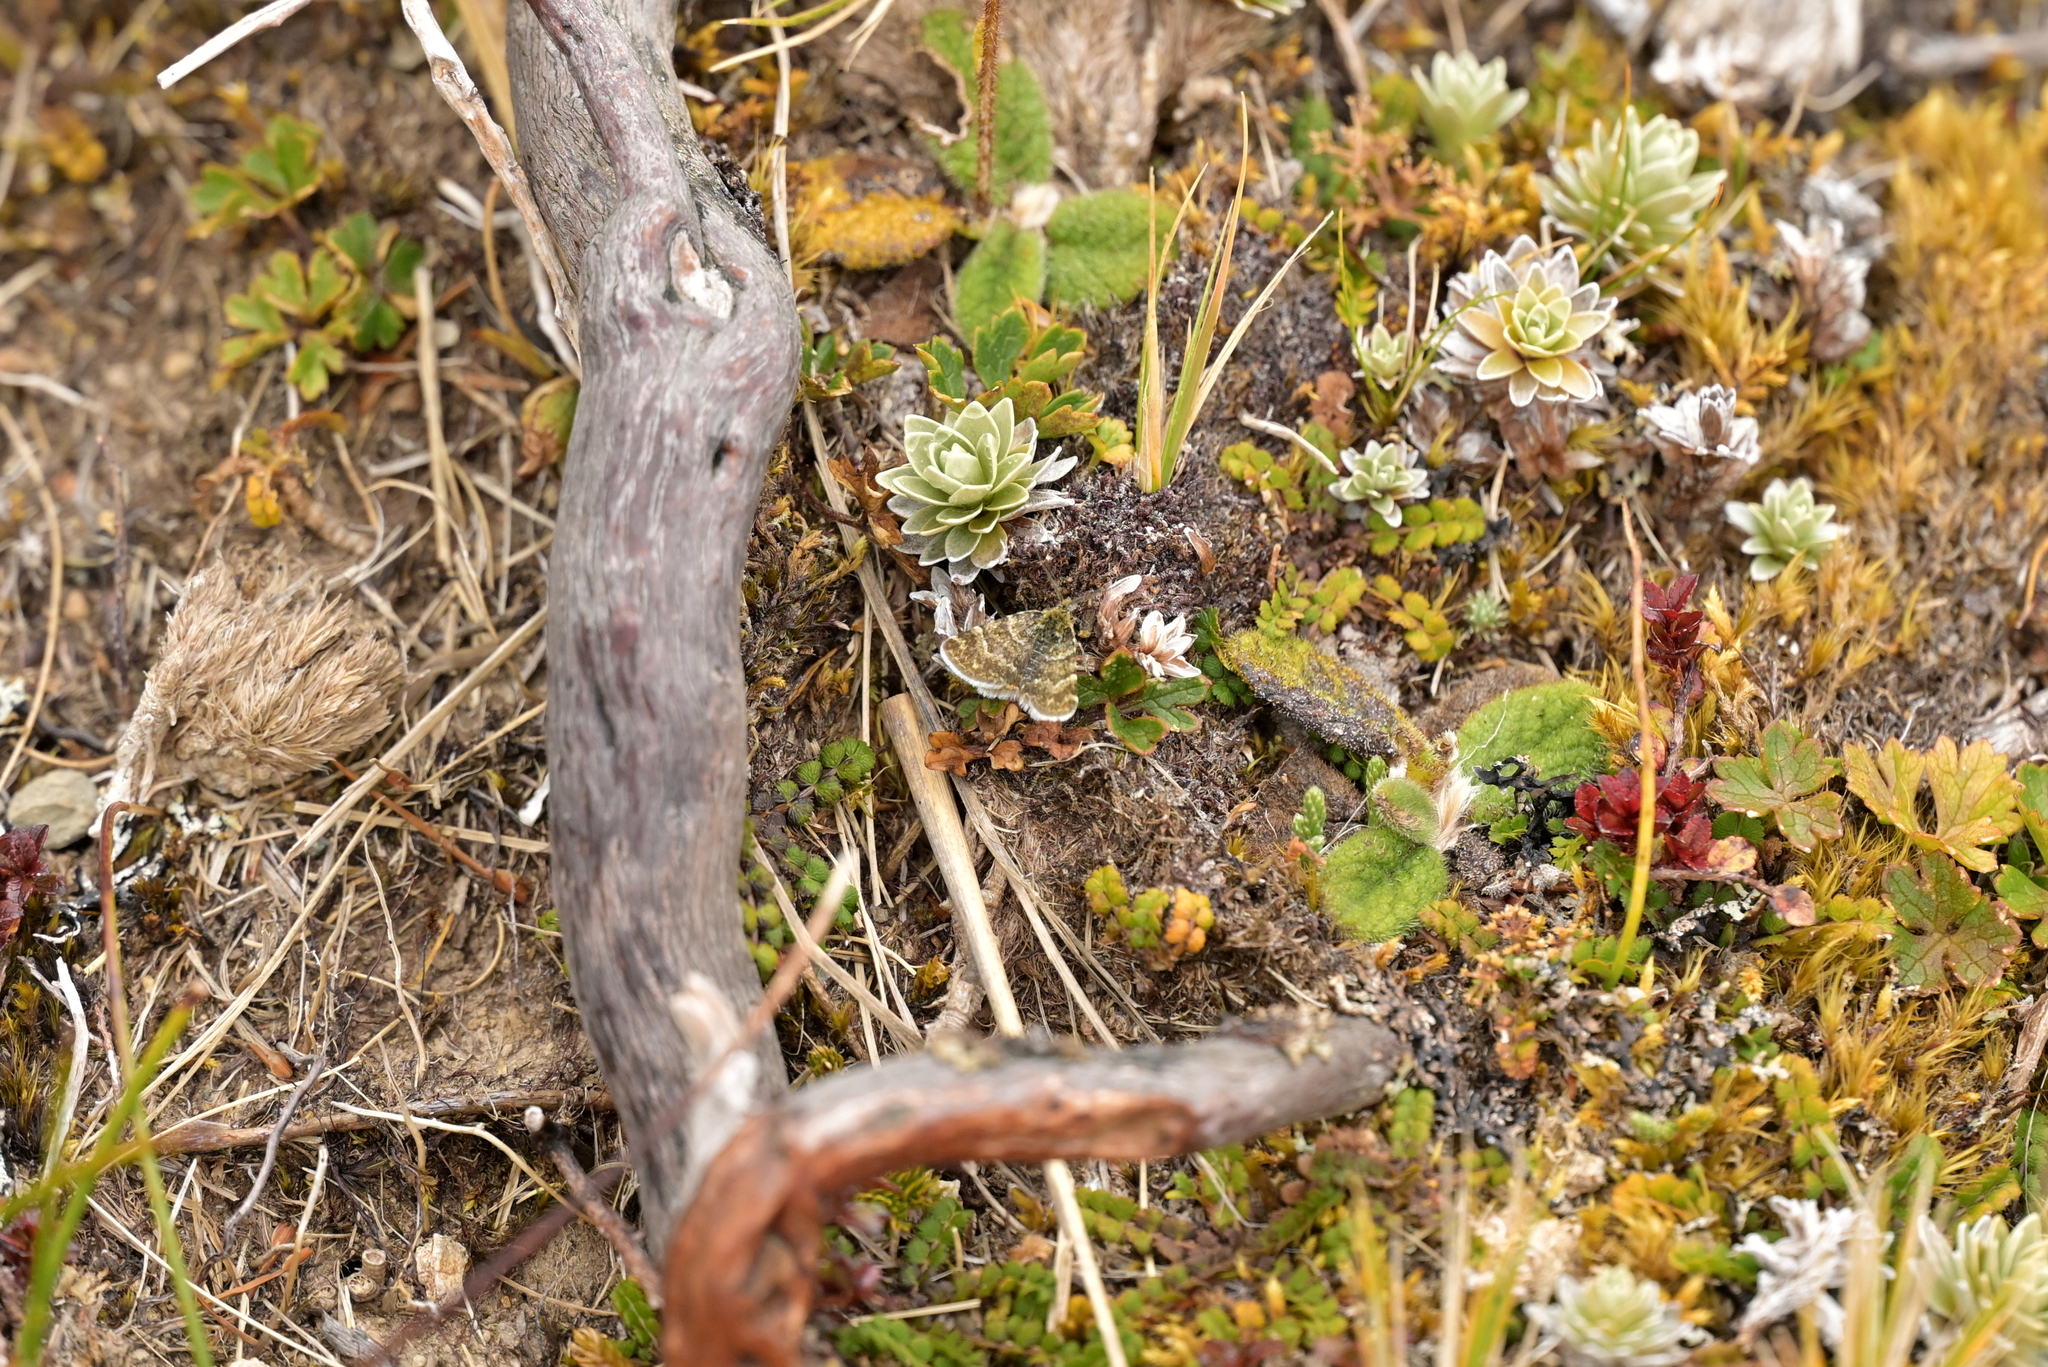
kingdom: Animalia
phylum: Arthropoda
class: Insecta
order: Lepidoptera
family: Geometridae
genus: Notoreas
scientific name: Notoreas atmogramma
